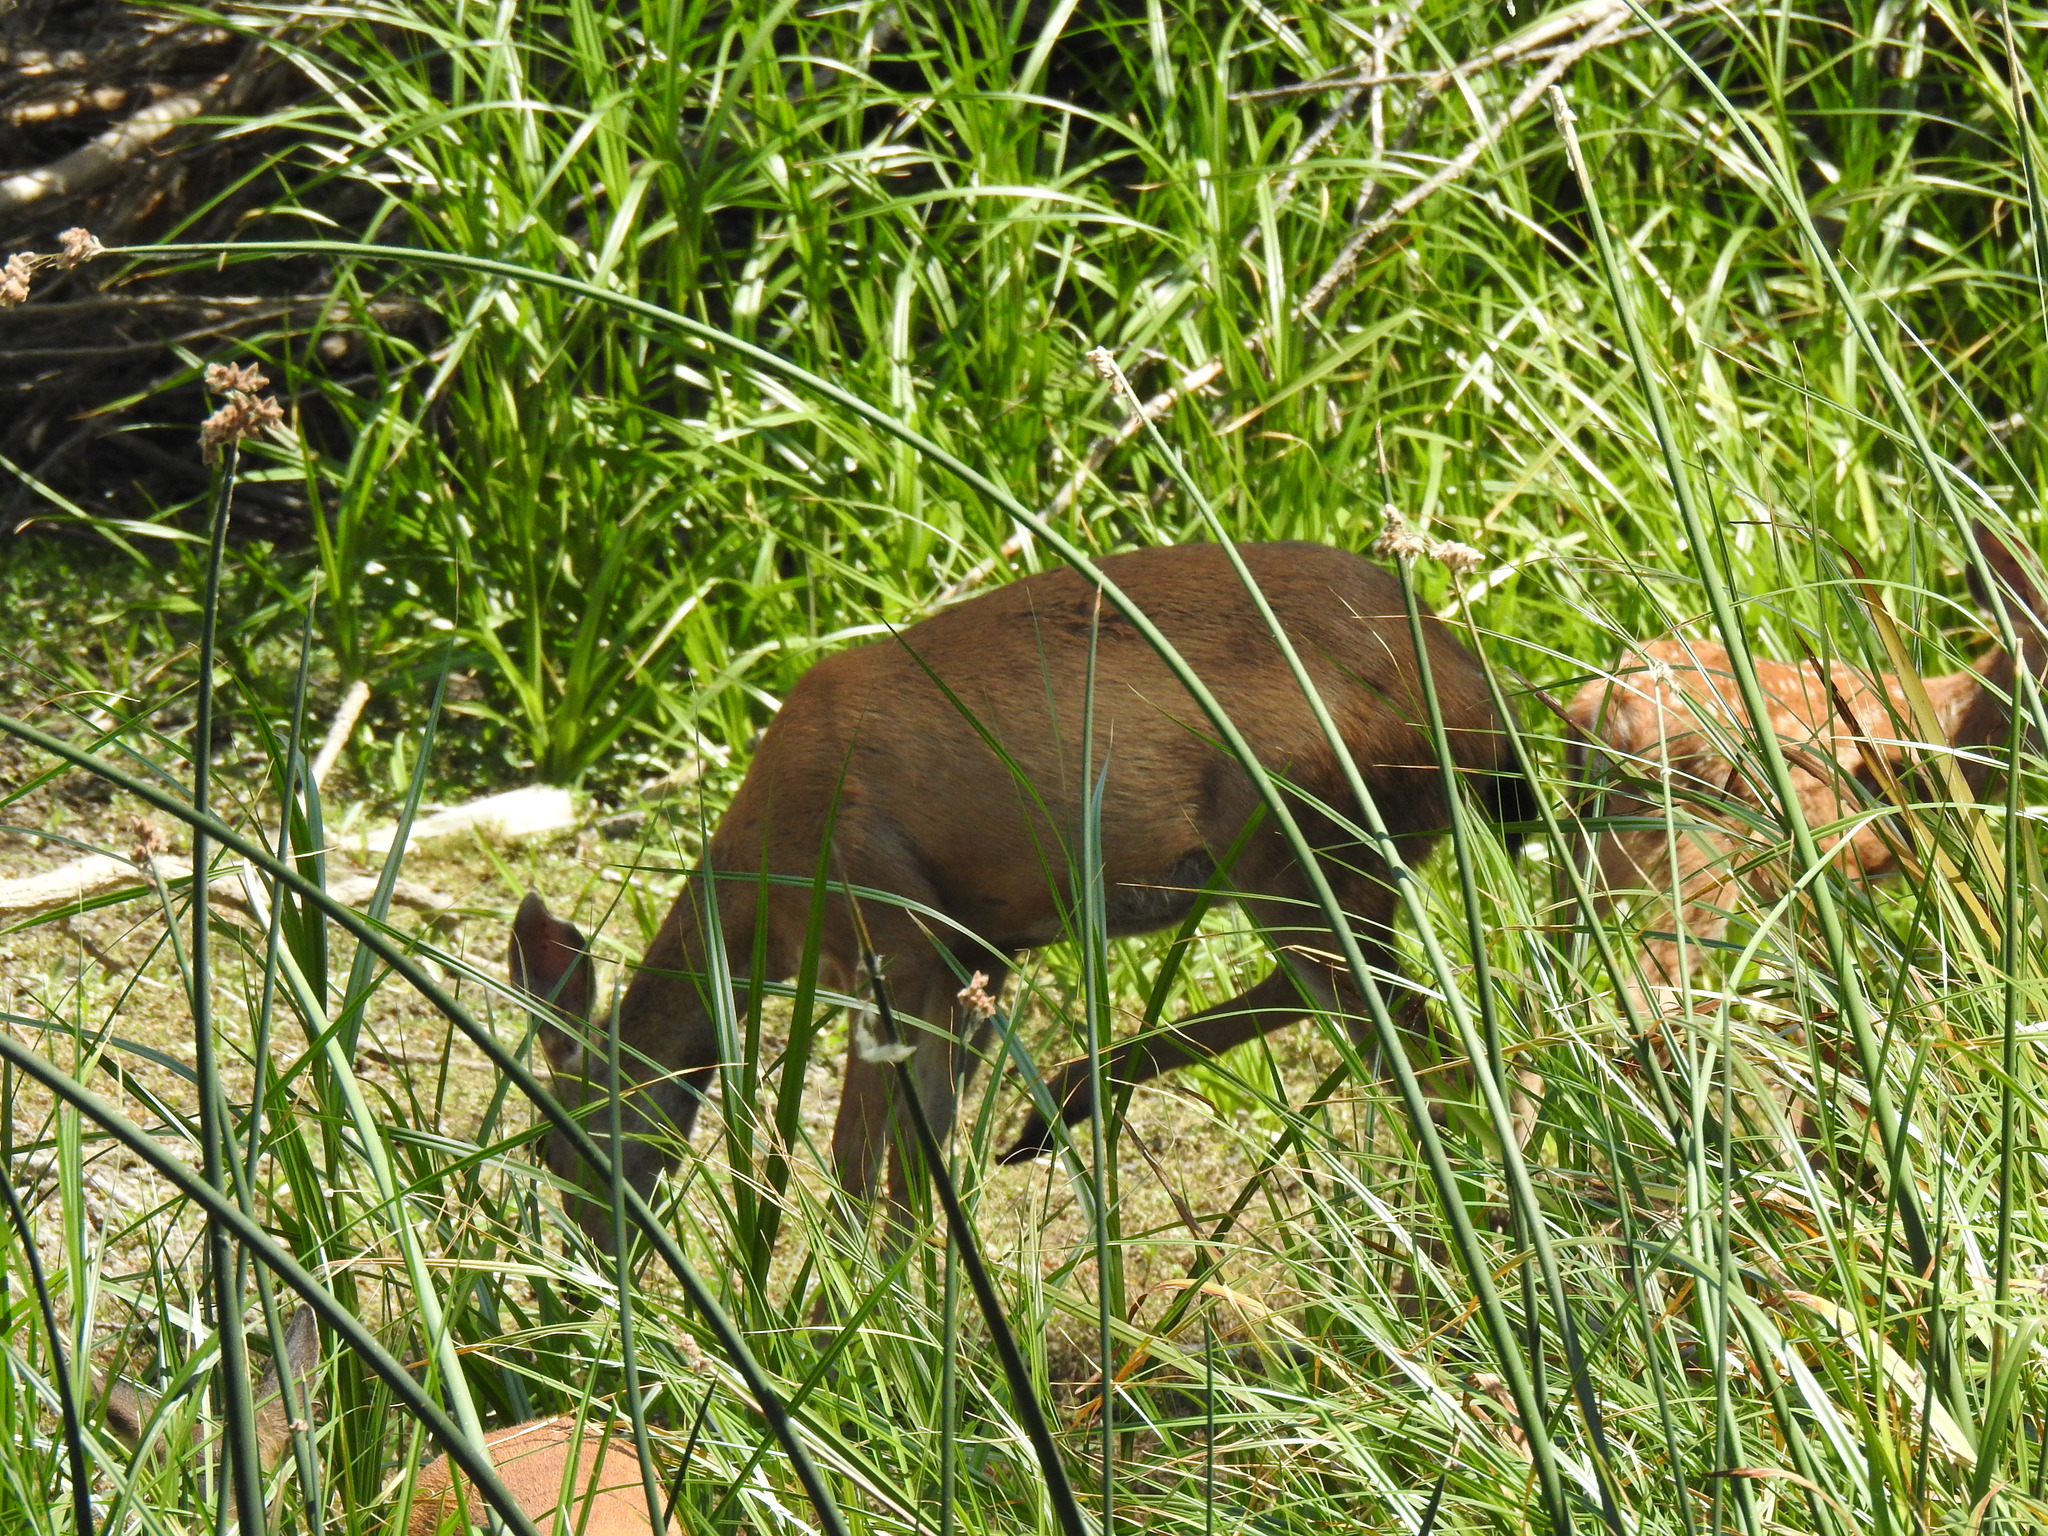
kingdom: Animalia
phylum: Chordata
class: Mammalia
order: Artiodactyla
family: Cervidae
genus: Odocoileus
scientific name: Odocoileus hemionus
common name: Mule deer
